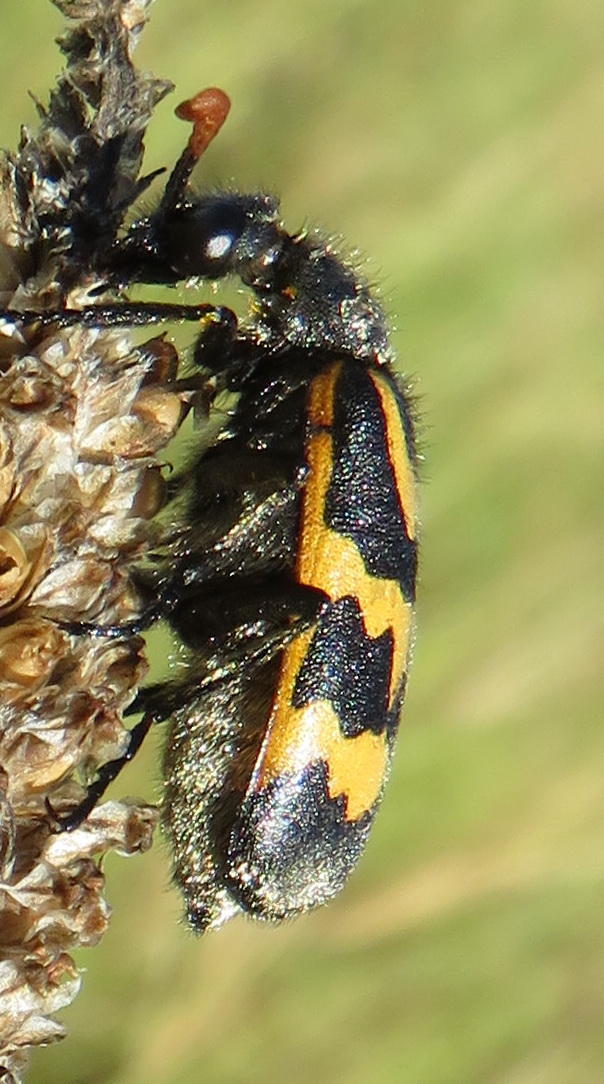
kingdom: Animalia
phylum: Arthropoda
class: Insecta
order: Coleoptera
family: Meloidae
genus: Meloe
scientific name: Meloe lunata
